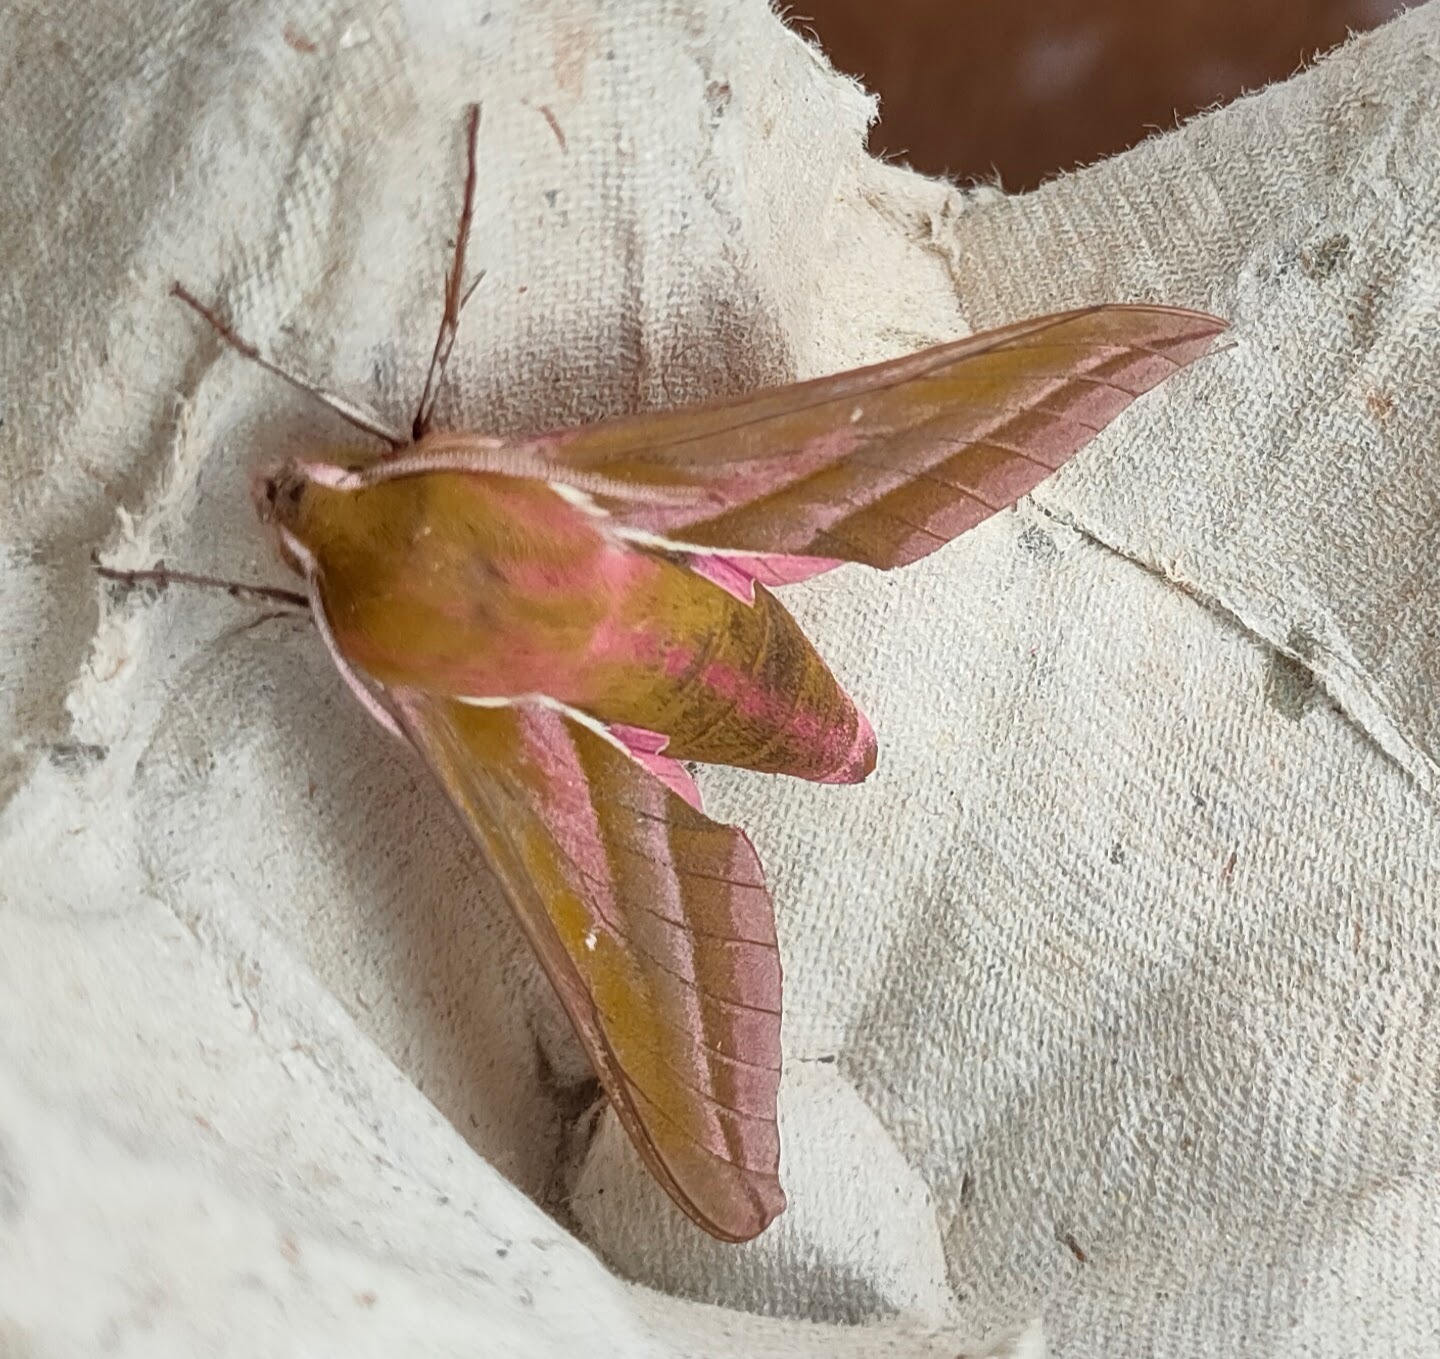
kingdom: Animalia
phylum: Arthropoda
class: Insecta
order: Lepidoptera
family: Sphingidae
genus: Deilephila
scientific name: Deilephila elpenor
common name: Elephant hawk-moth
